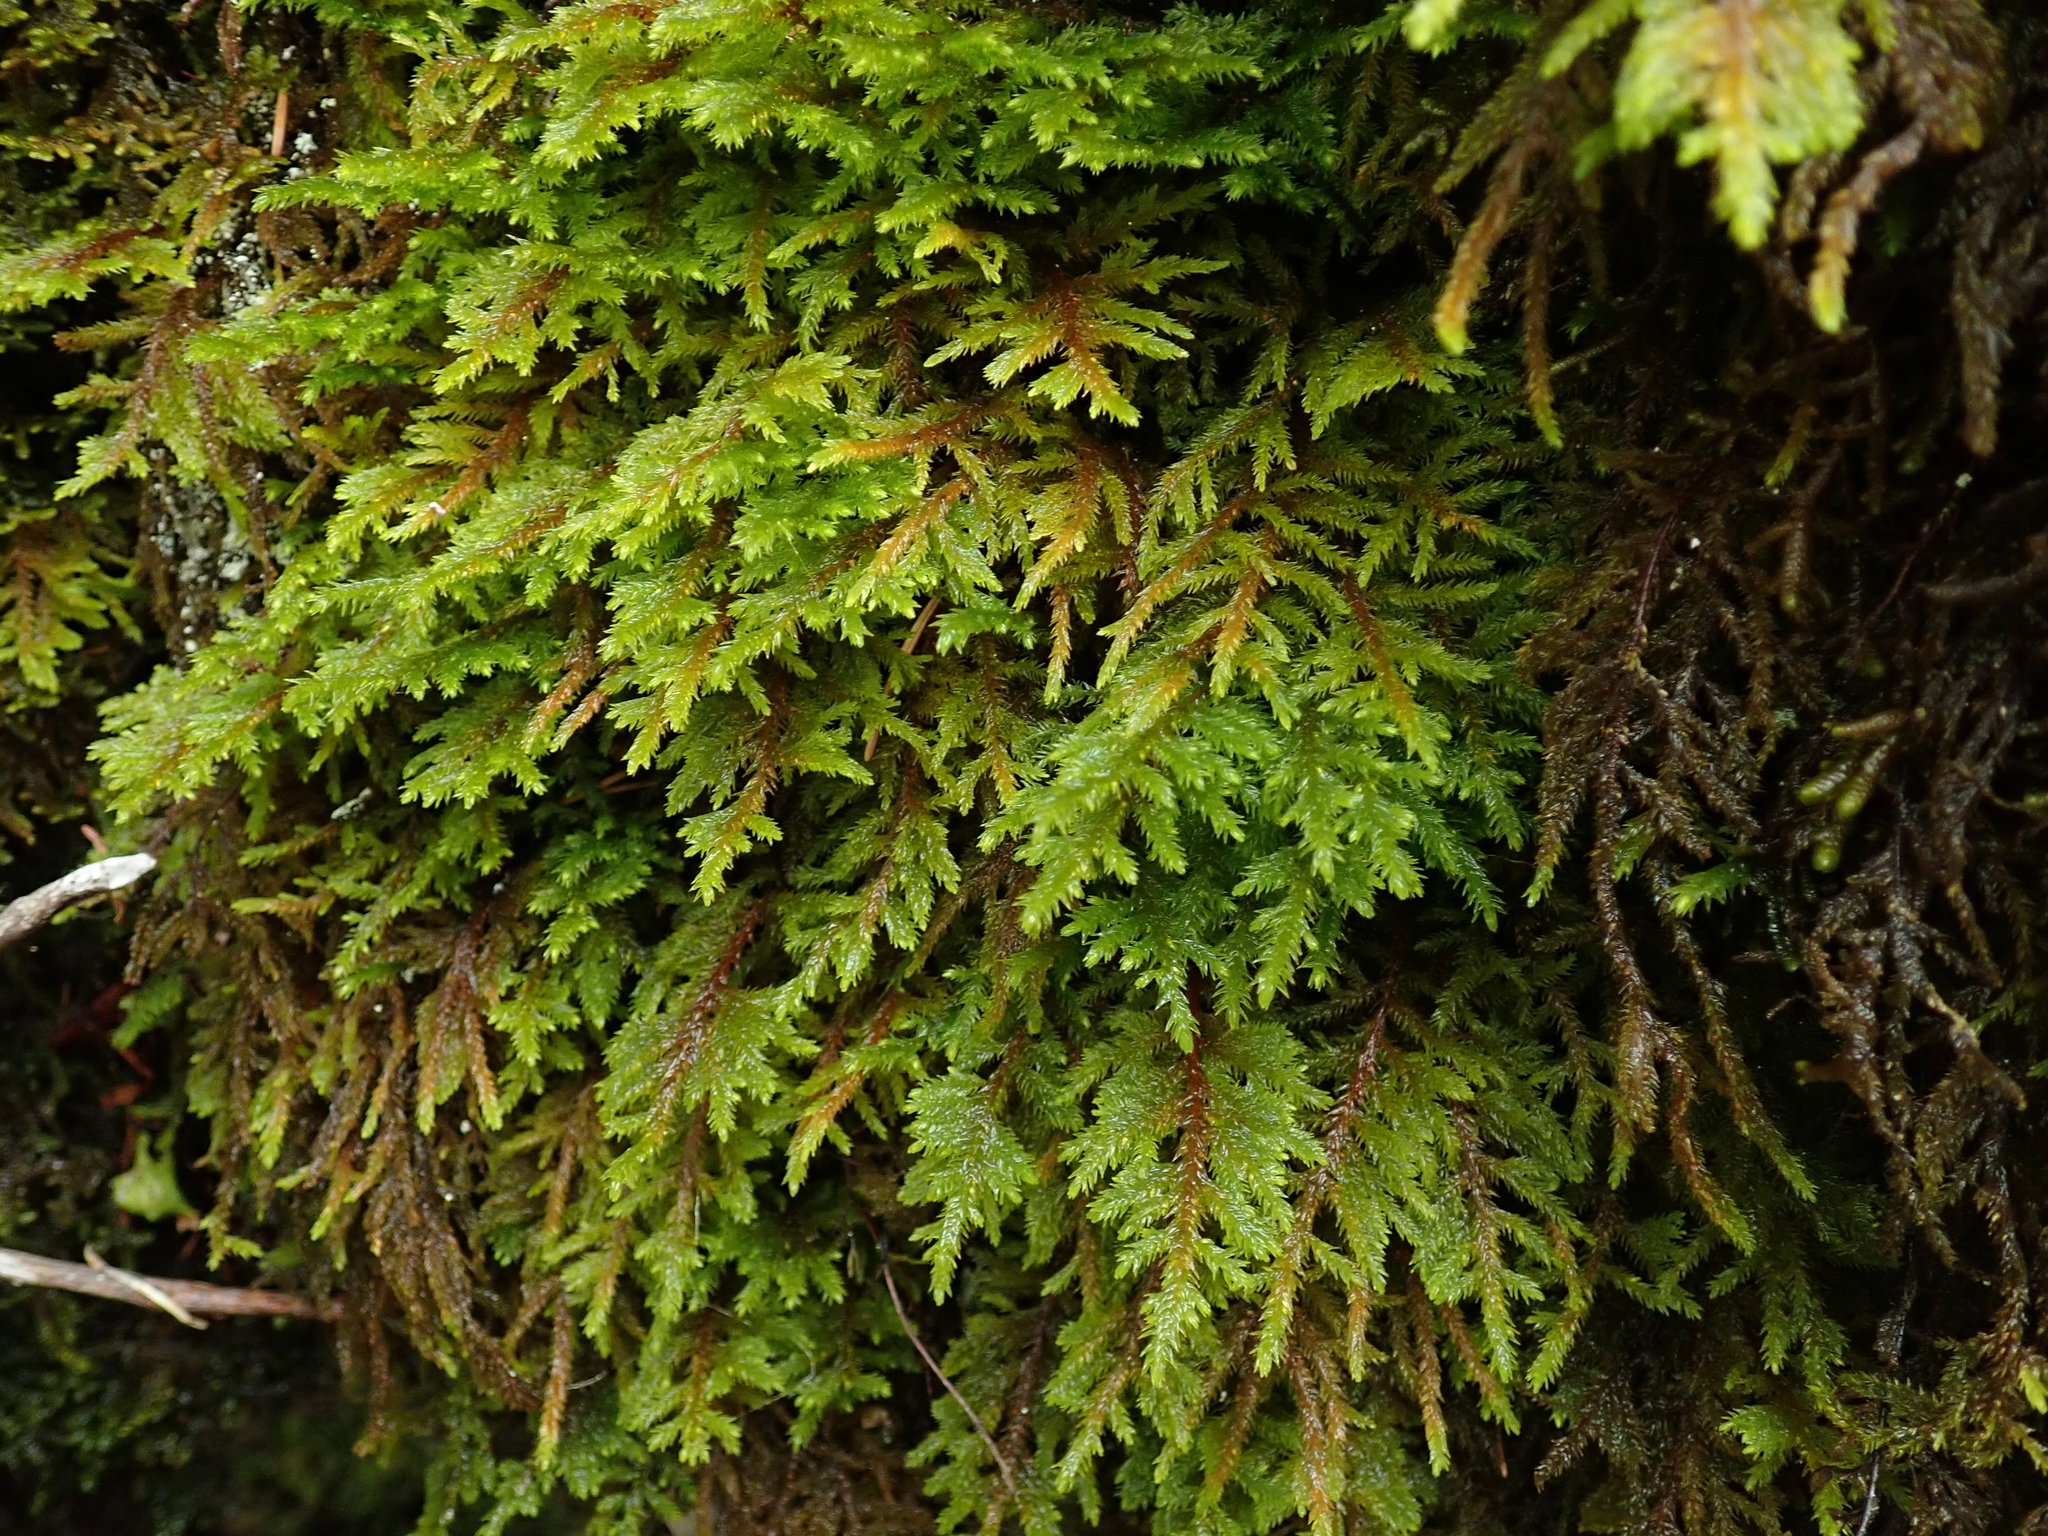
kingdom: Plantae
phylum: Bryophyta
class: Bryopsida
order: Hypnales
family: Cryphaeaceae
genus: Dendroalsia
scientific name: Dendroalsia abietina
